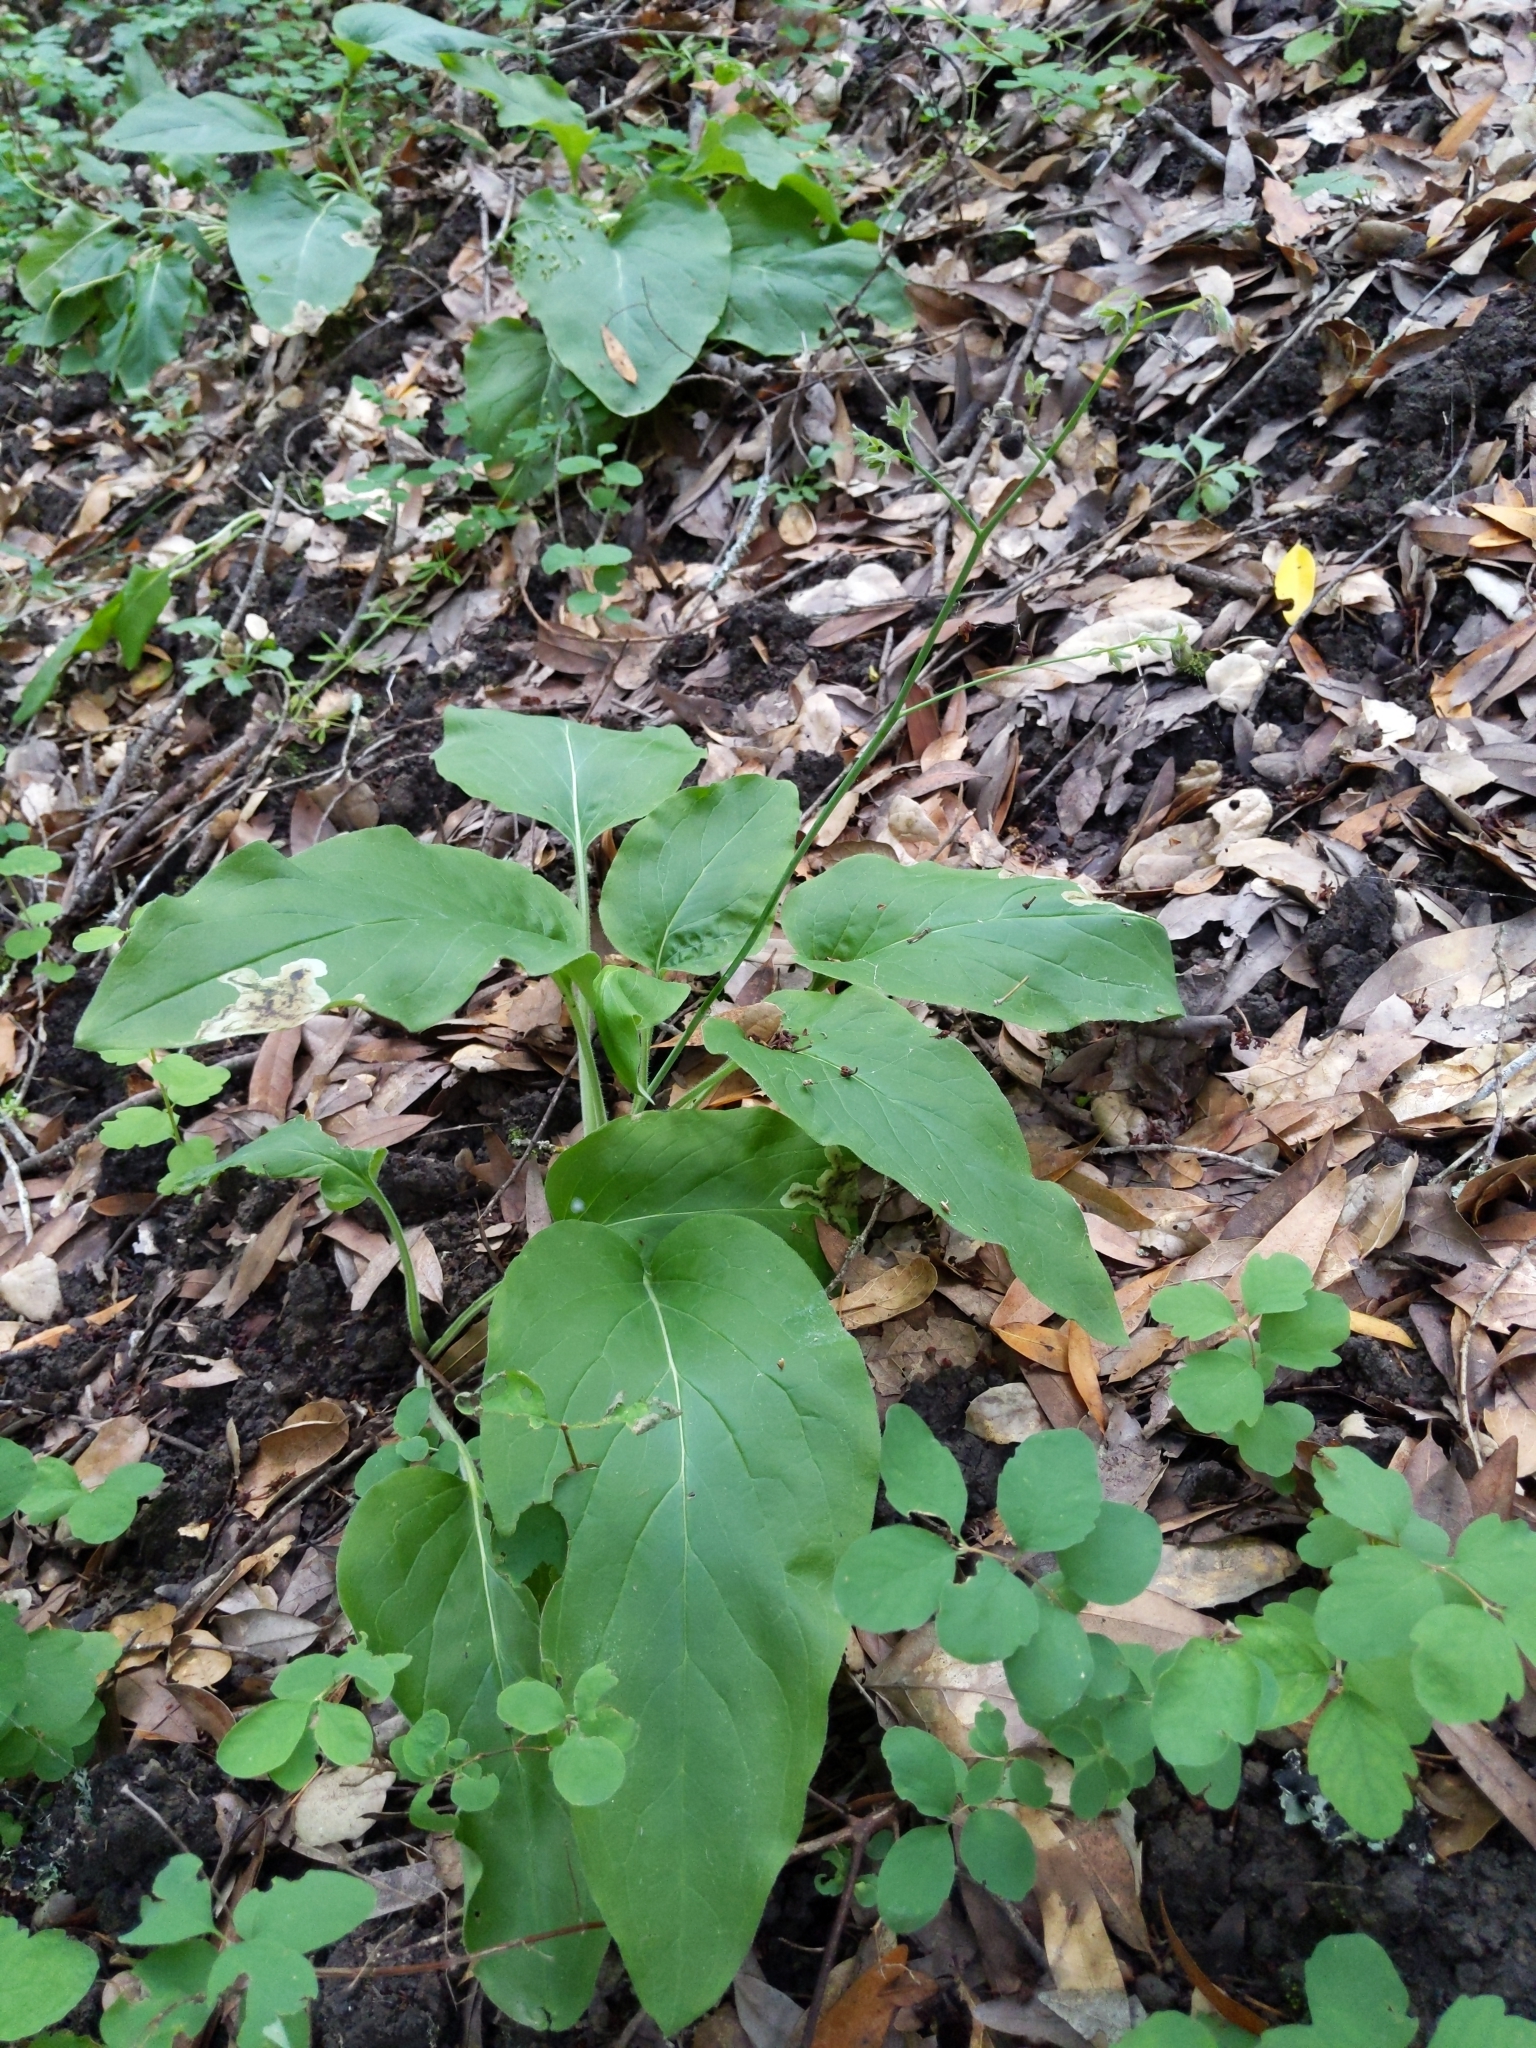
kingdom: Plantae
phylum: Tracheophyta
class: Magnoliopsida
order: Boraginales
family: Boraginaceae
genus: Adelinia
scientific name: Adelinia grande
